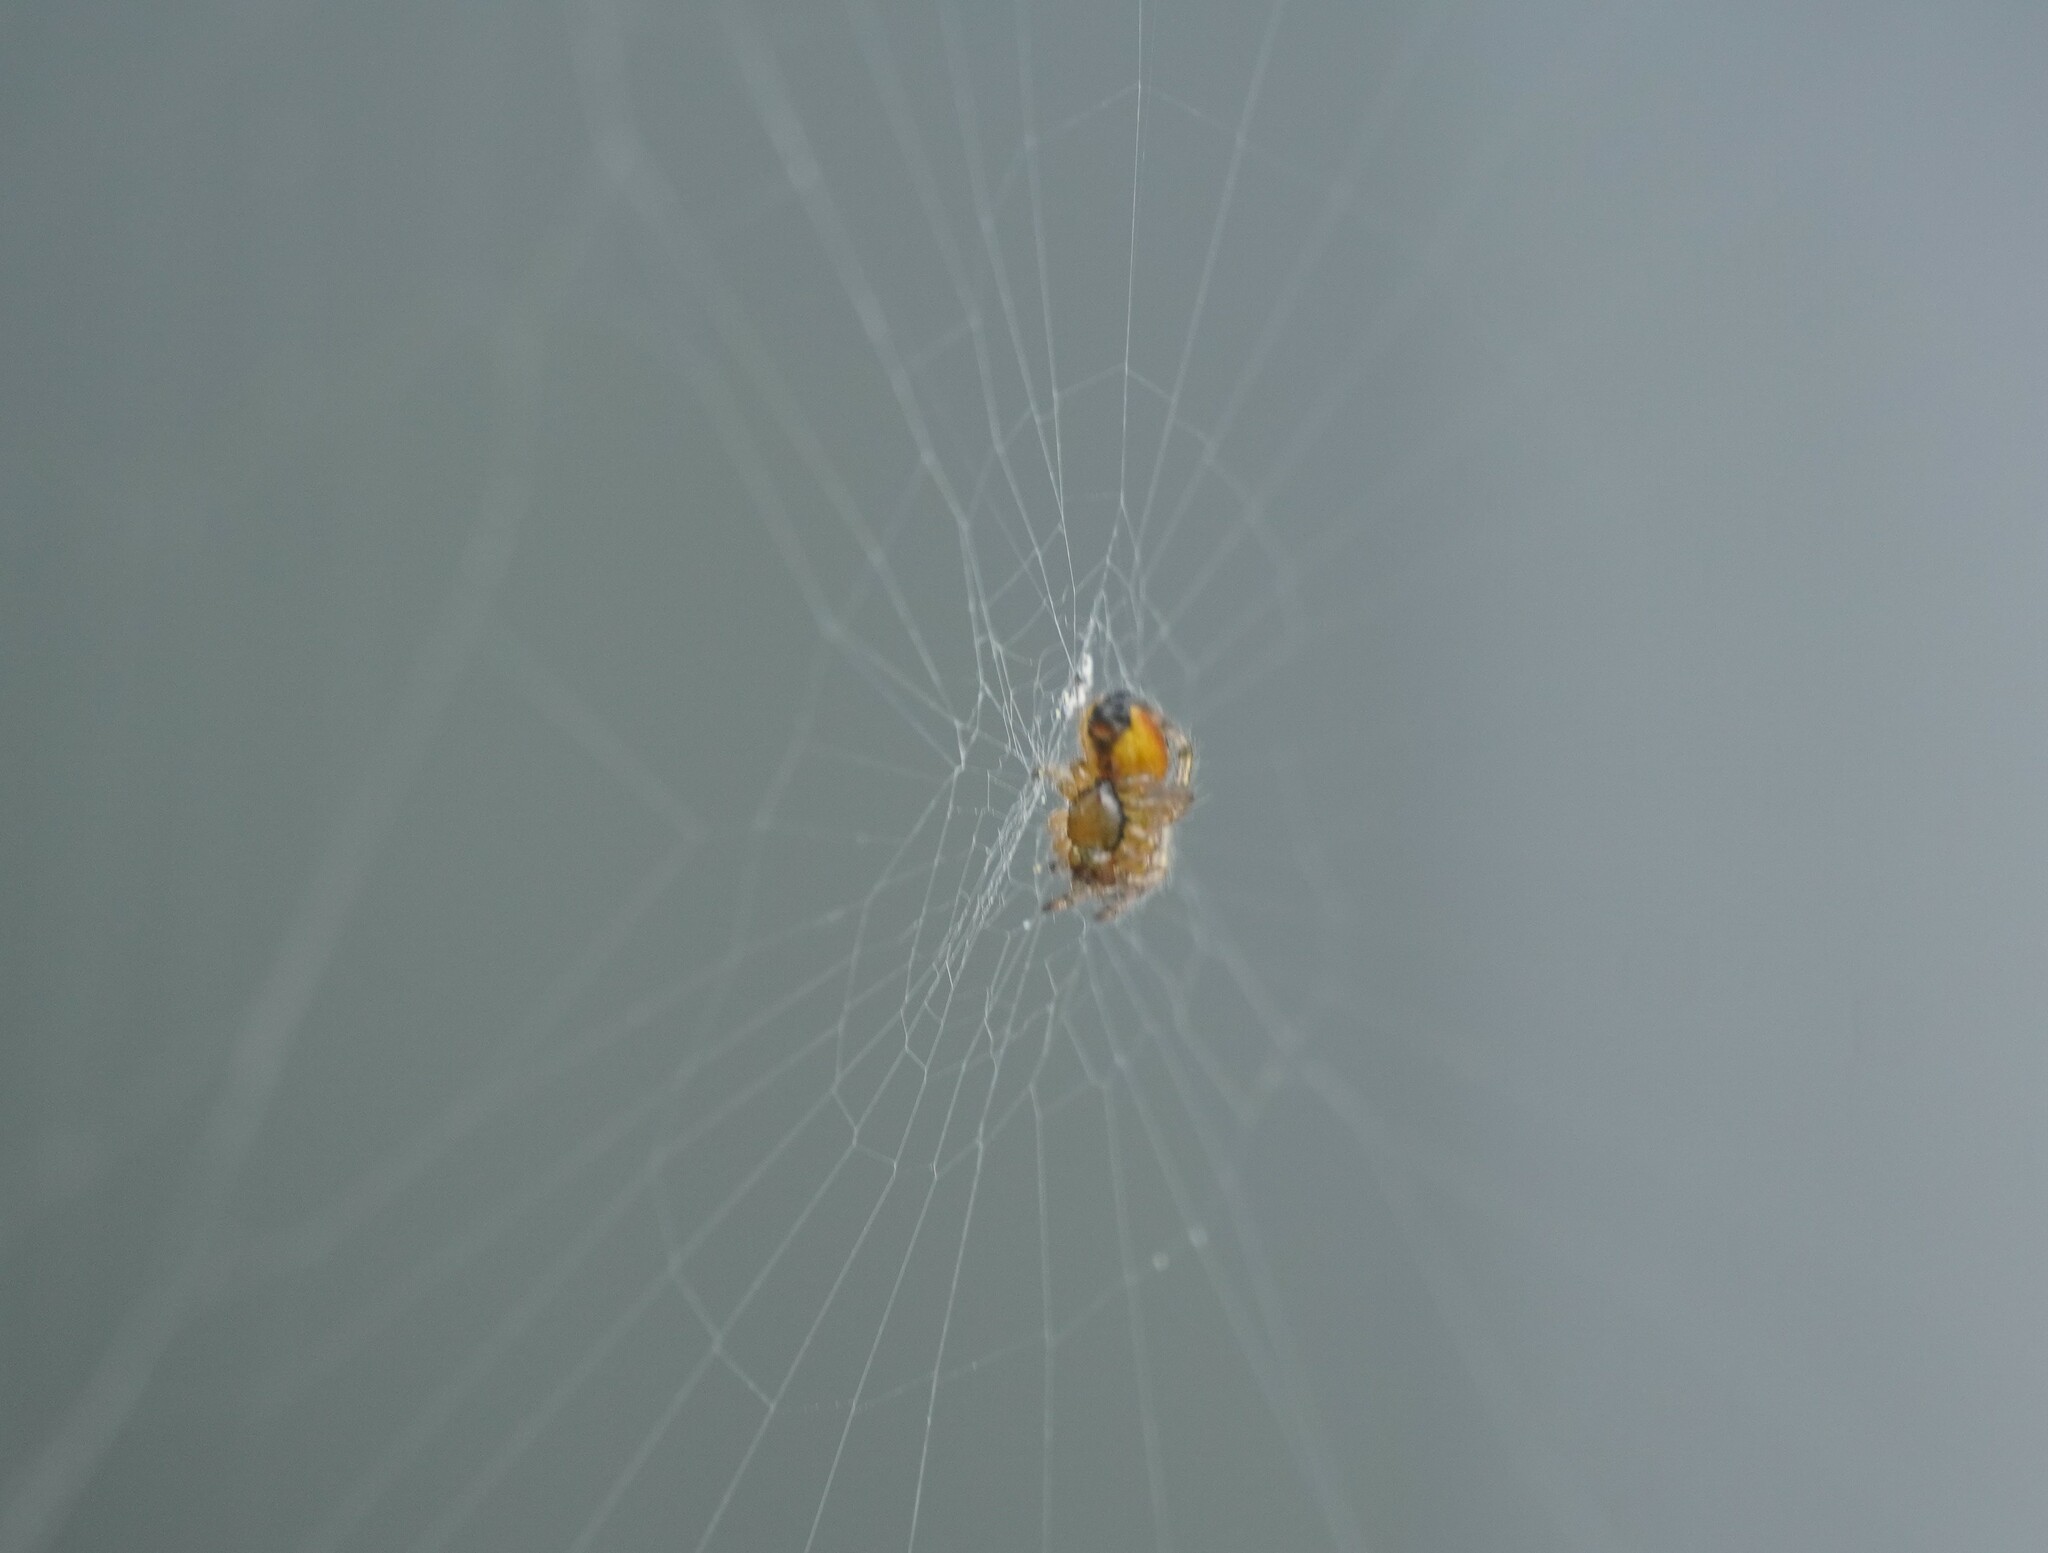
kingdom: Animalia
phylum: Arthropoda
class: Arachnida
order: Araneae
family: Araneidae
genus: Zygiella
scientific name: Zygiella x-notata
